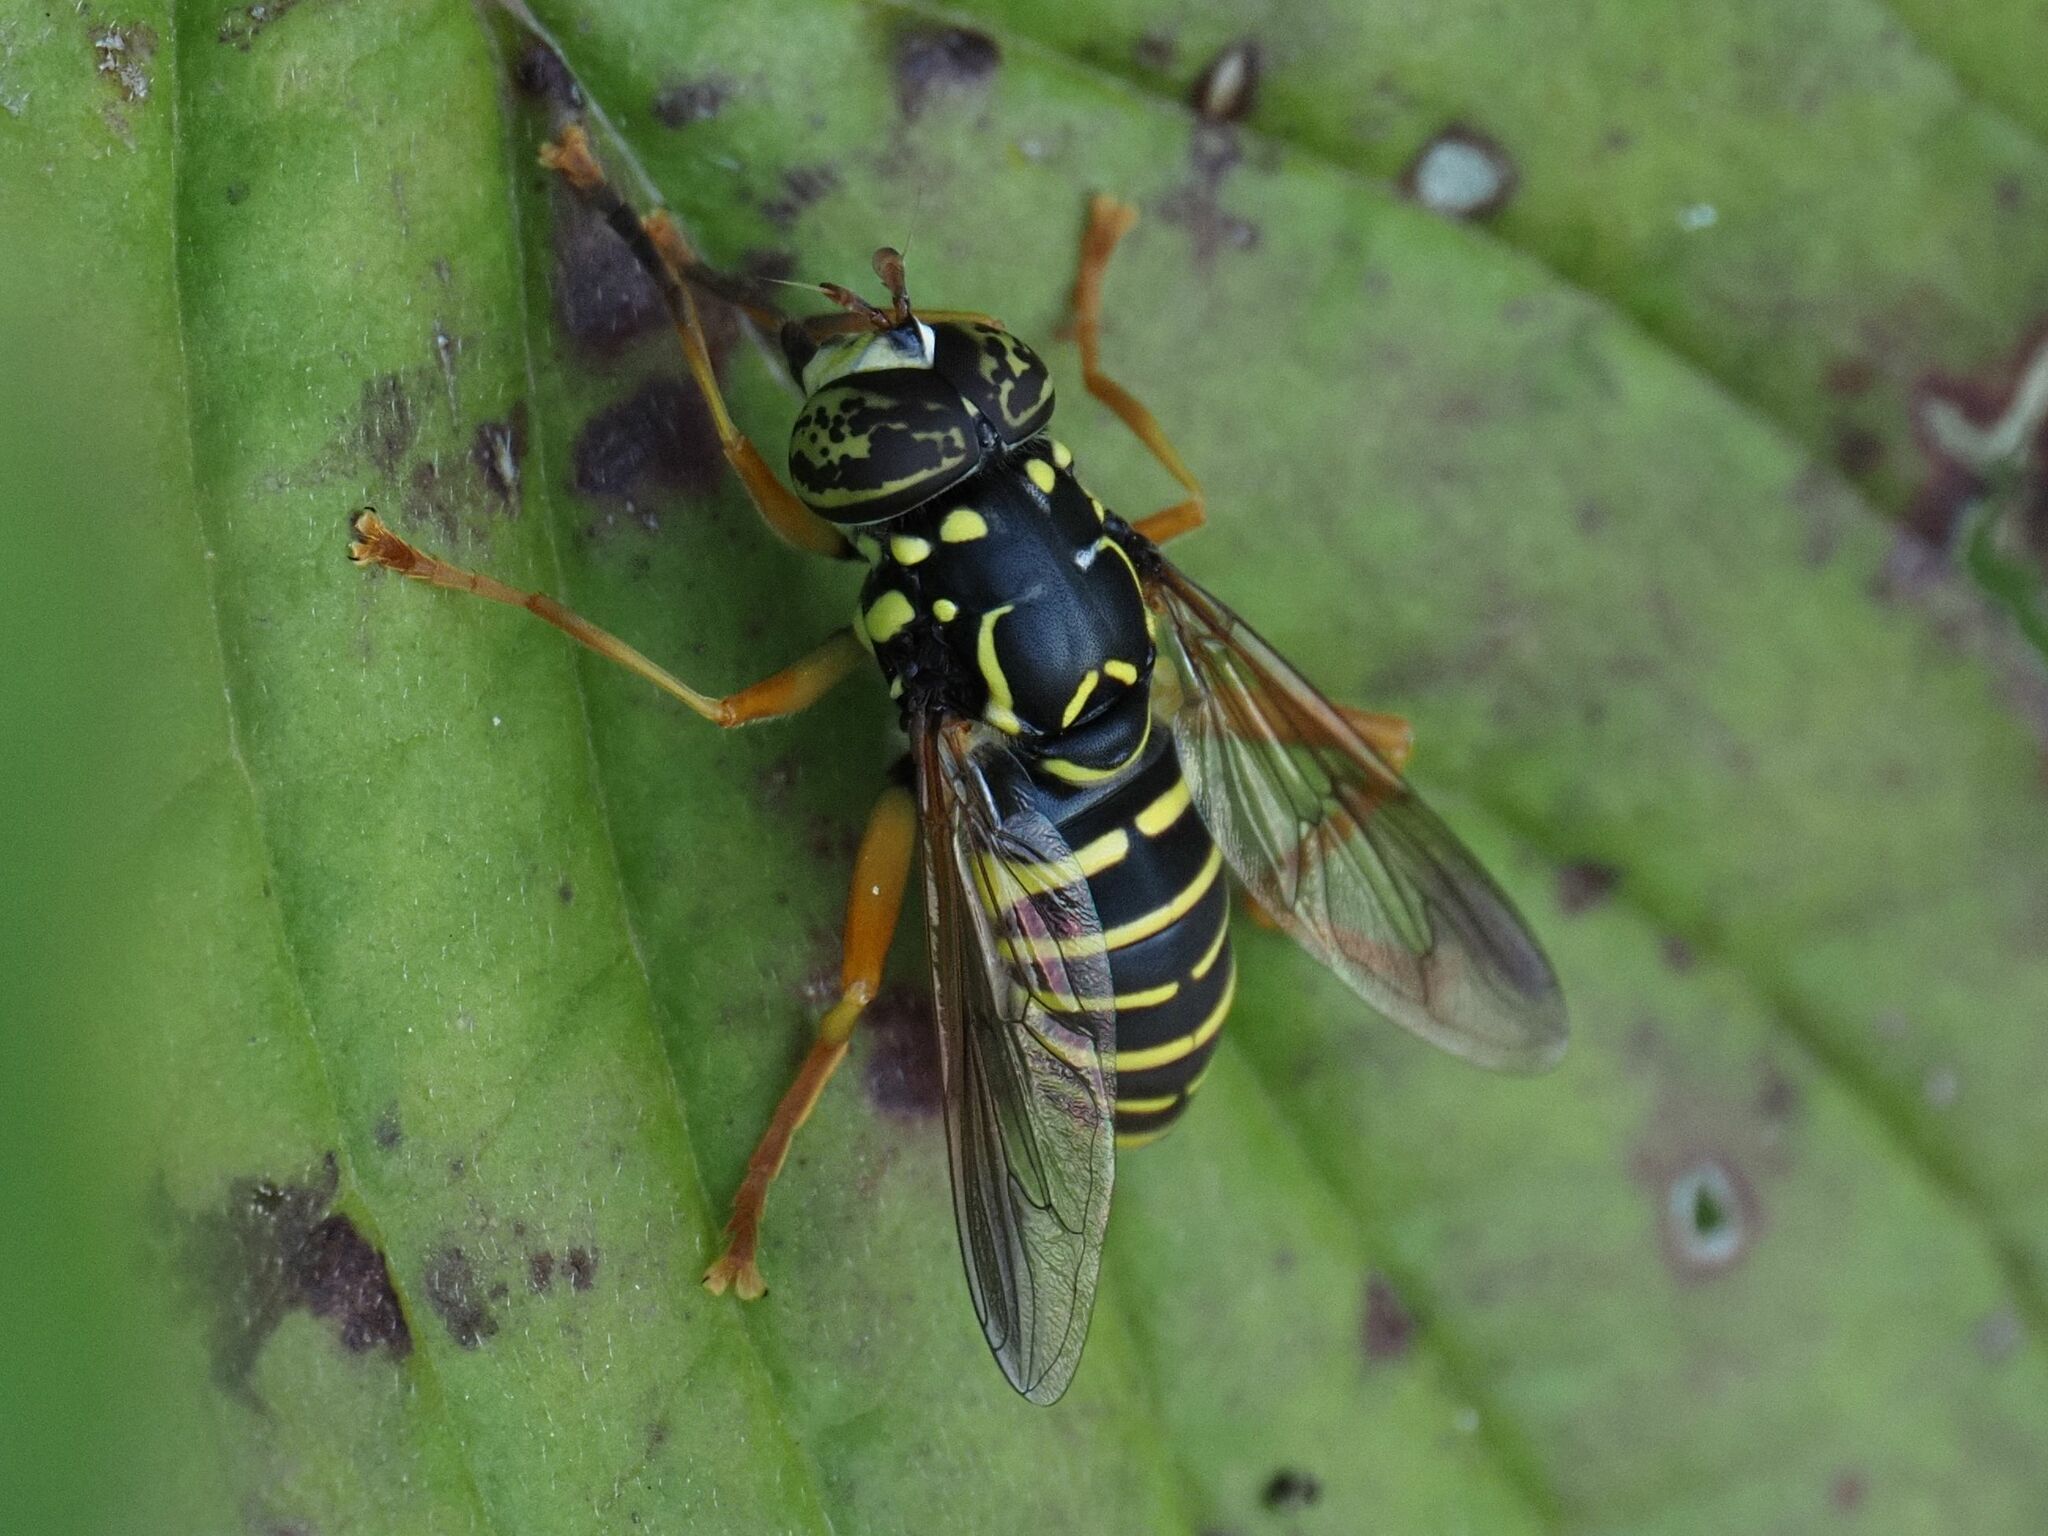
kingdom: Animalia
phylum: Arthropoda
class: Insecta
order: Diptera
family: Syrphidae
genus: Spilomyia
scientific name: Spilomyia saltuum
